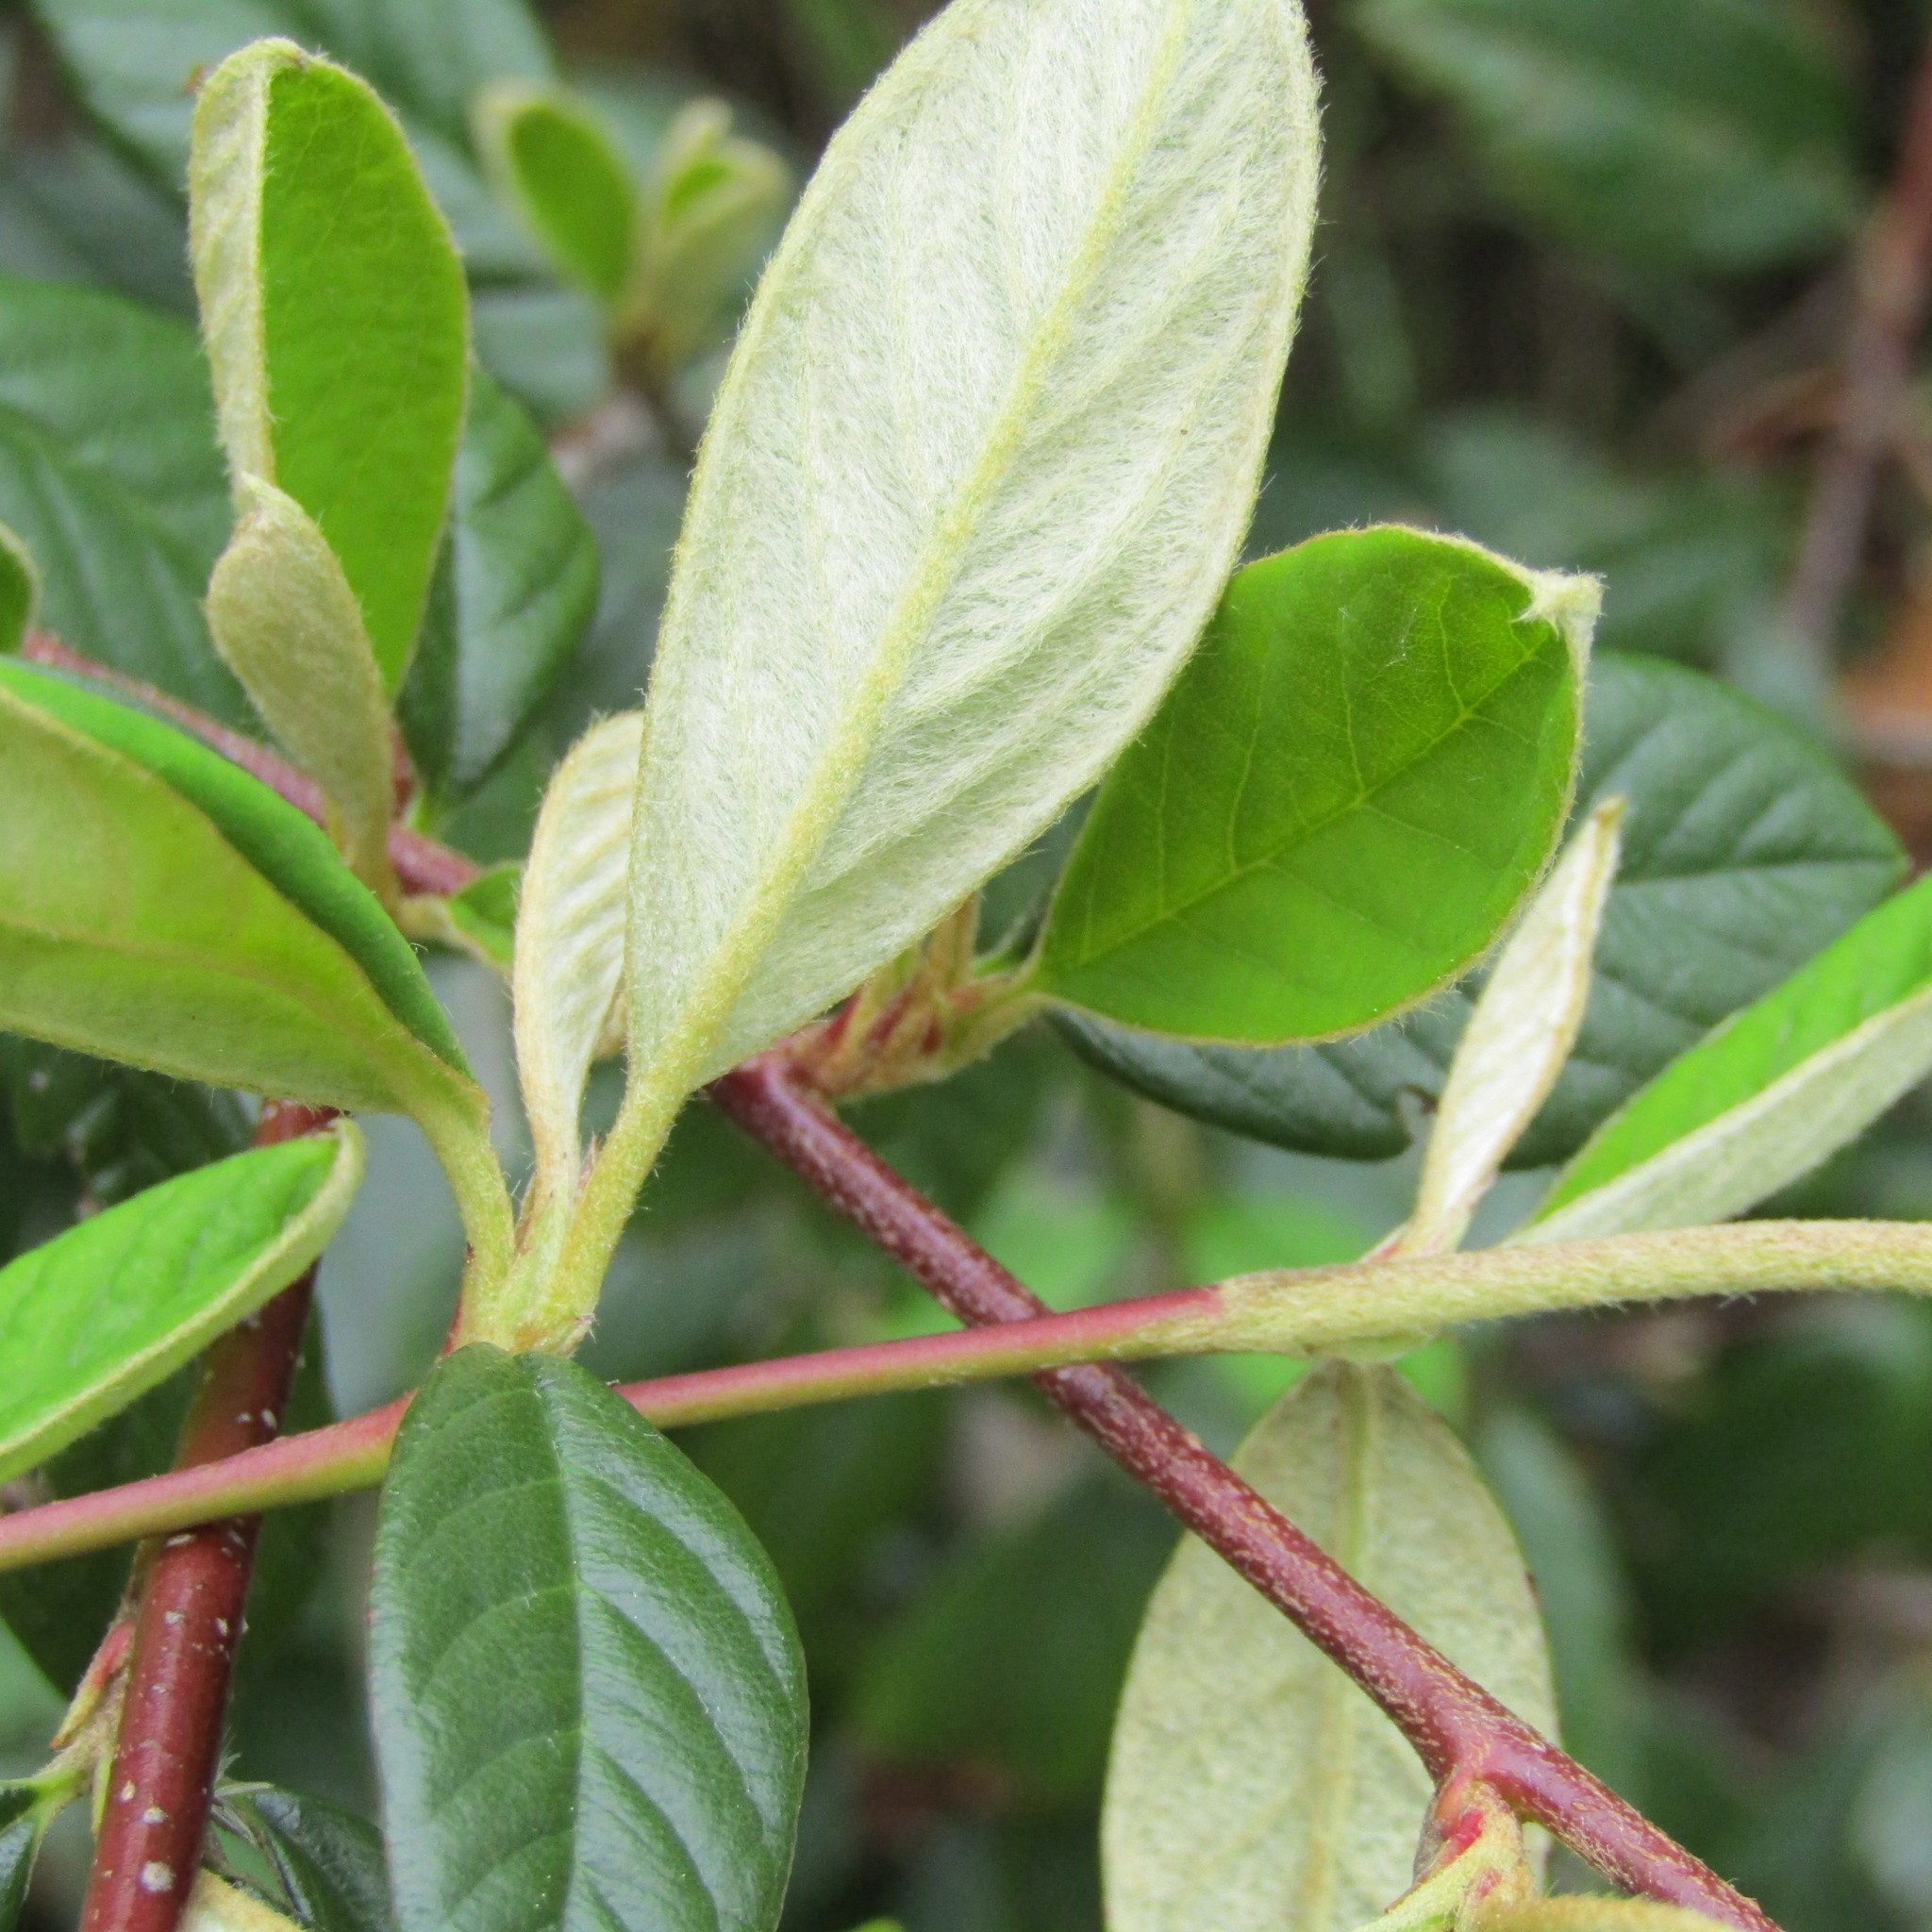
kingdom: Plantae
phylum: Tracheophyta
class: Magnoliopsida
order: Rosales
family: Rosaceae
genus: Cotoneaster
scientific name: Cotoneaster coriaceus
